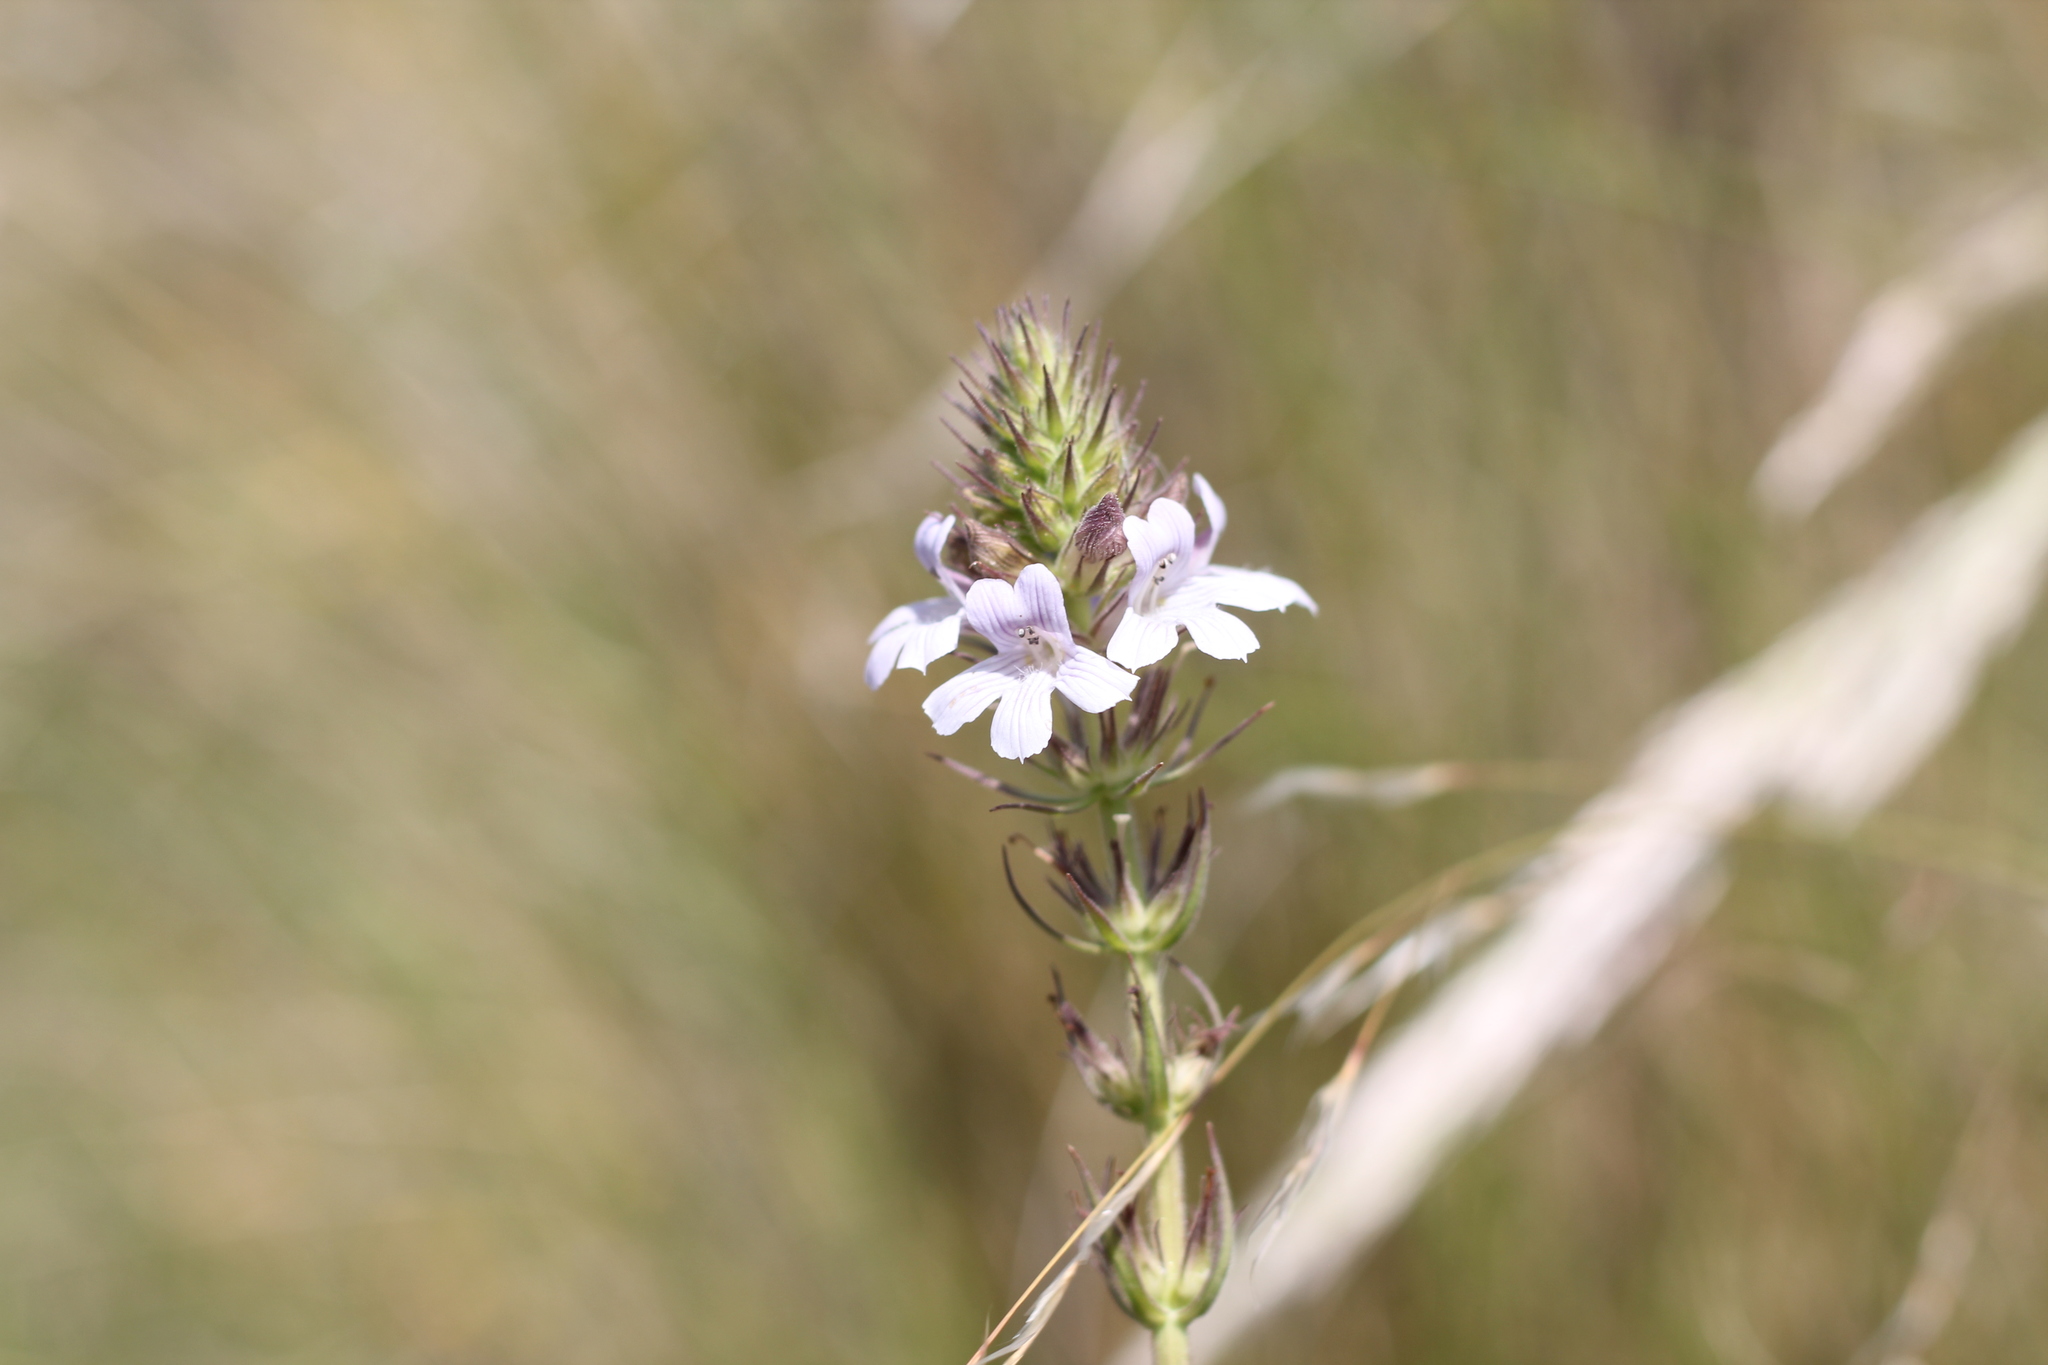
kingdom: Plantae
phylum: Tracheophyta
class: Magnoliopsida
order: Lamiales
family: Plantaginaceae
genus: Stemodia
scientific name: Stemodia palustris
